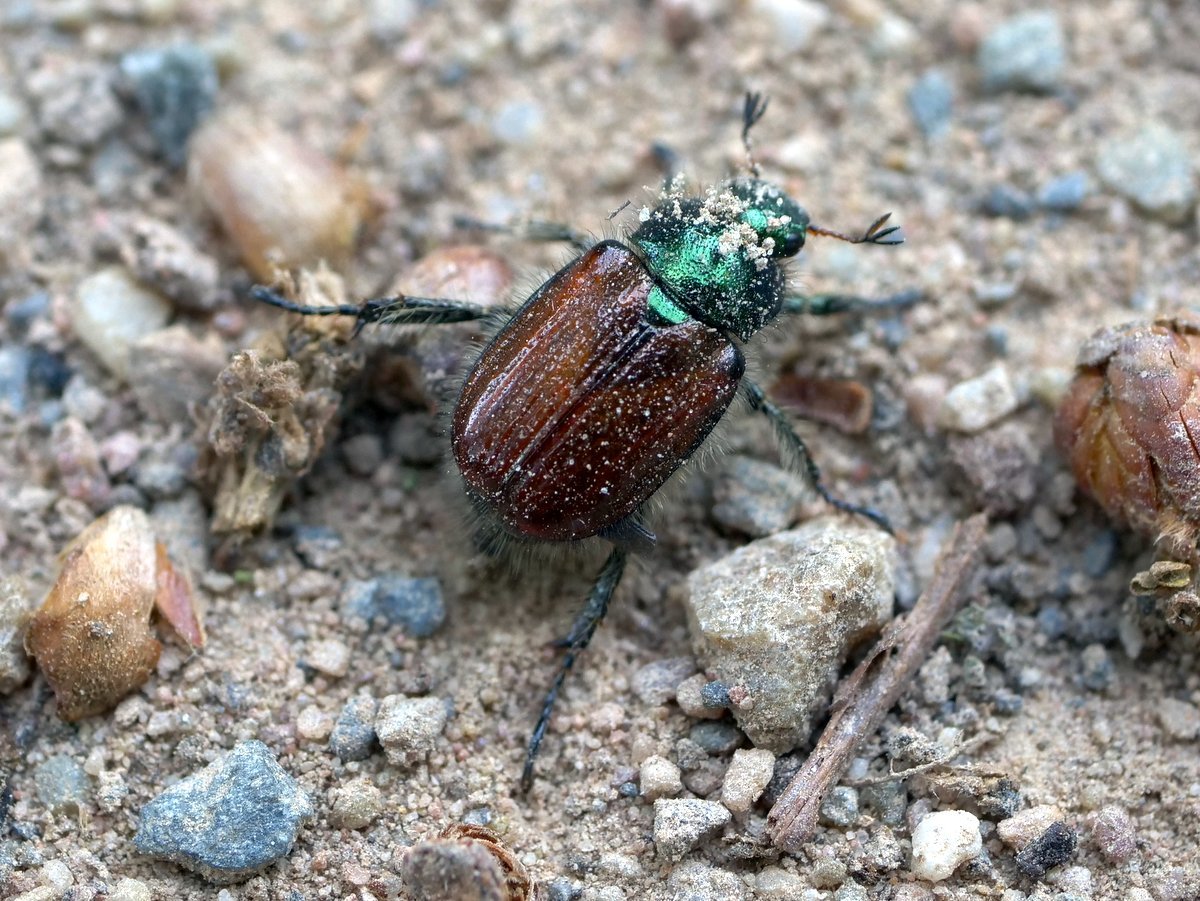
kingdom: Animalia
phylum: Arthropoda
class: Insecta
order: Coleoptera
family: Scarabaeidae
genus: Phyllopertha
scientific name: Phyllopertha horticola
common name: Garden chafer
